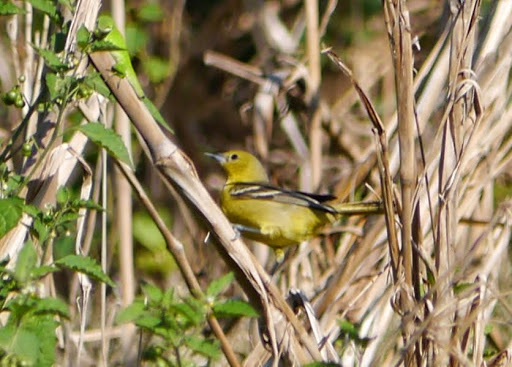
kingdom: Animalia
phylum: Chordata
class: Aves
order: Passeriformes
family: Icteridae
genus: Icterus
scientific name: Icterus spurius
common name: Orchard oriole
